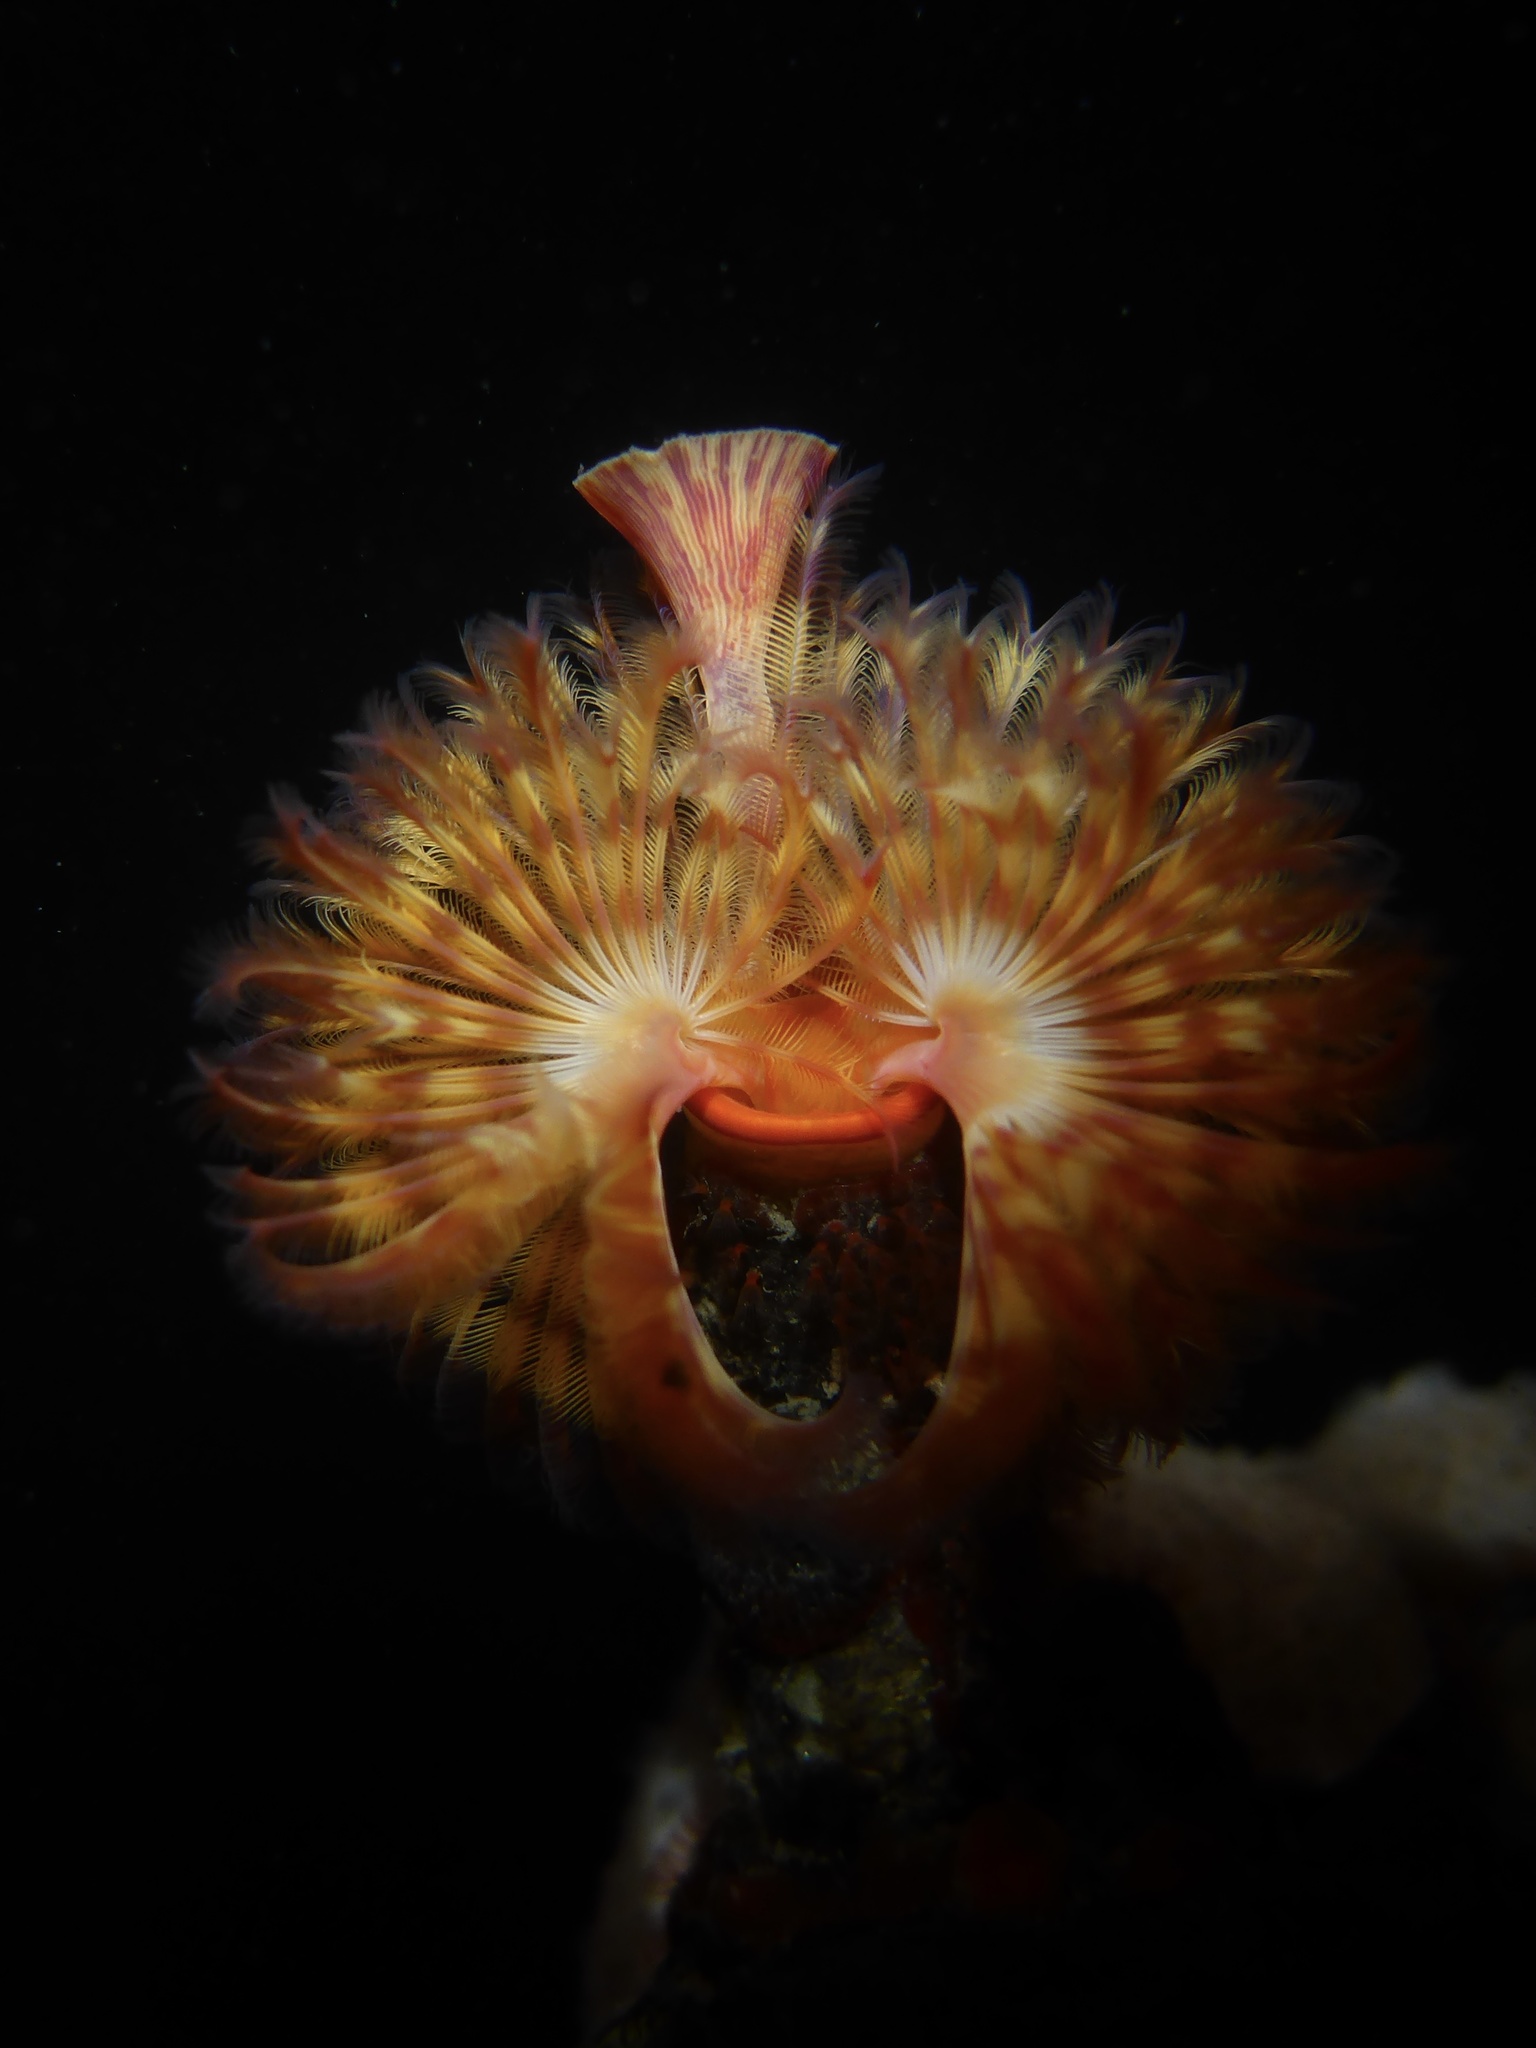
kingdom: Animalia
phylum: Annelida
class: Polychaeta
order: Sabellida
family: Serpulidae
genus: Serpula
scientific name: Serpula columbiana
